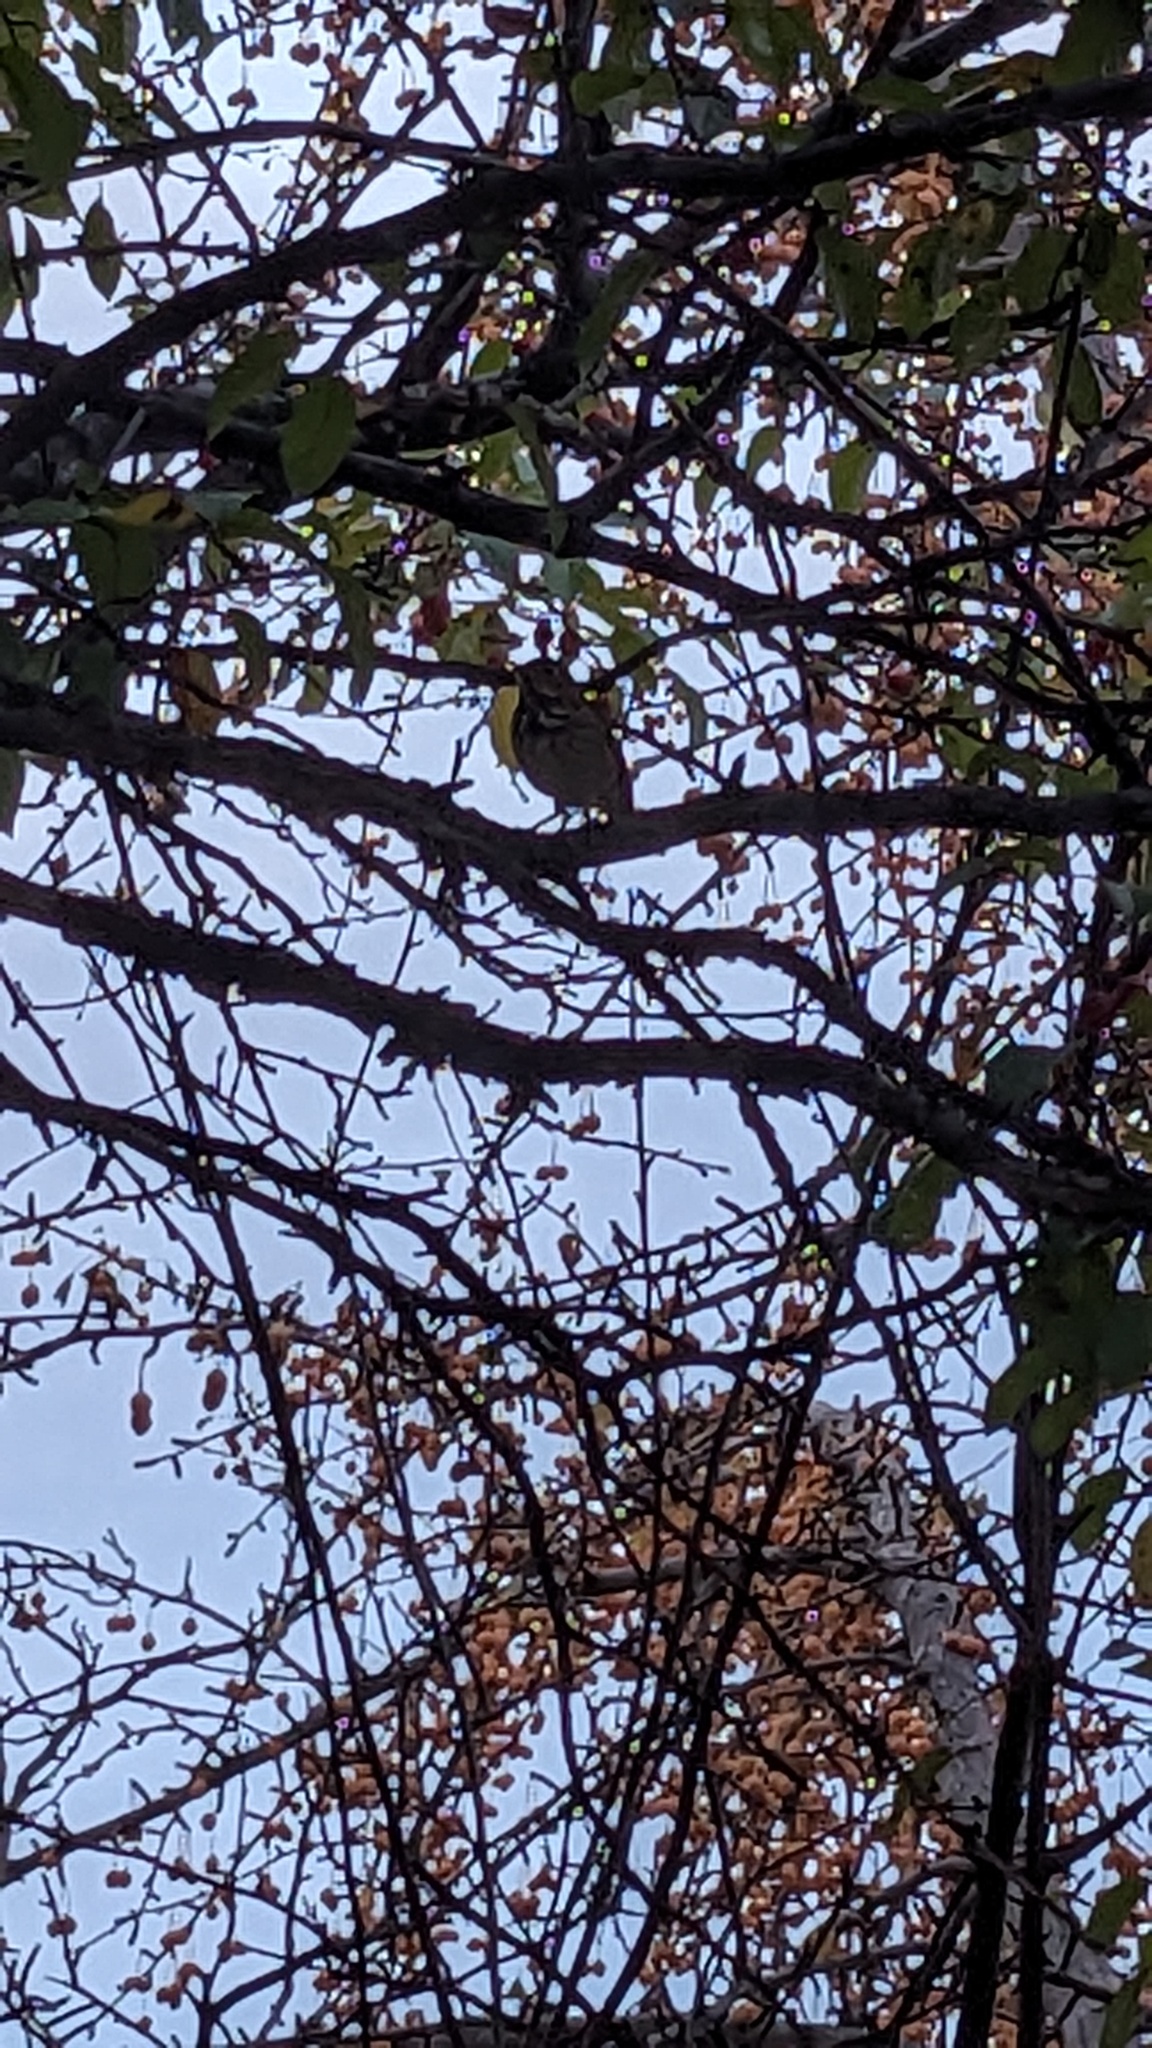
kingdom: Animalia
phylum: Chordata
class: Aves
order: Passeriformes
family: Turdidae
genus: Catharus
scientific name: Catharus guttatus
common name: Hermit thrush
